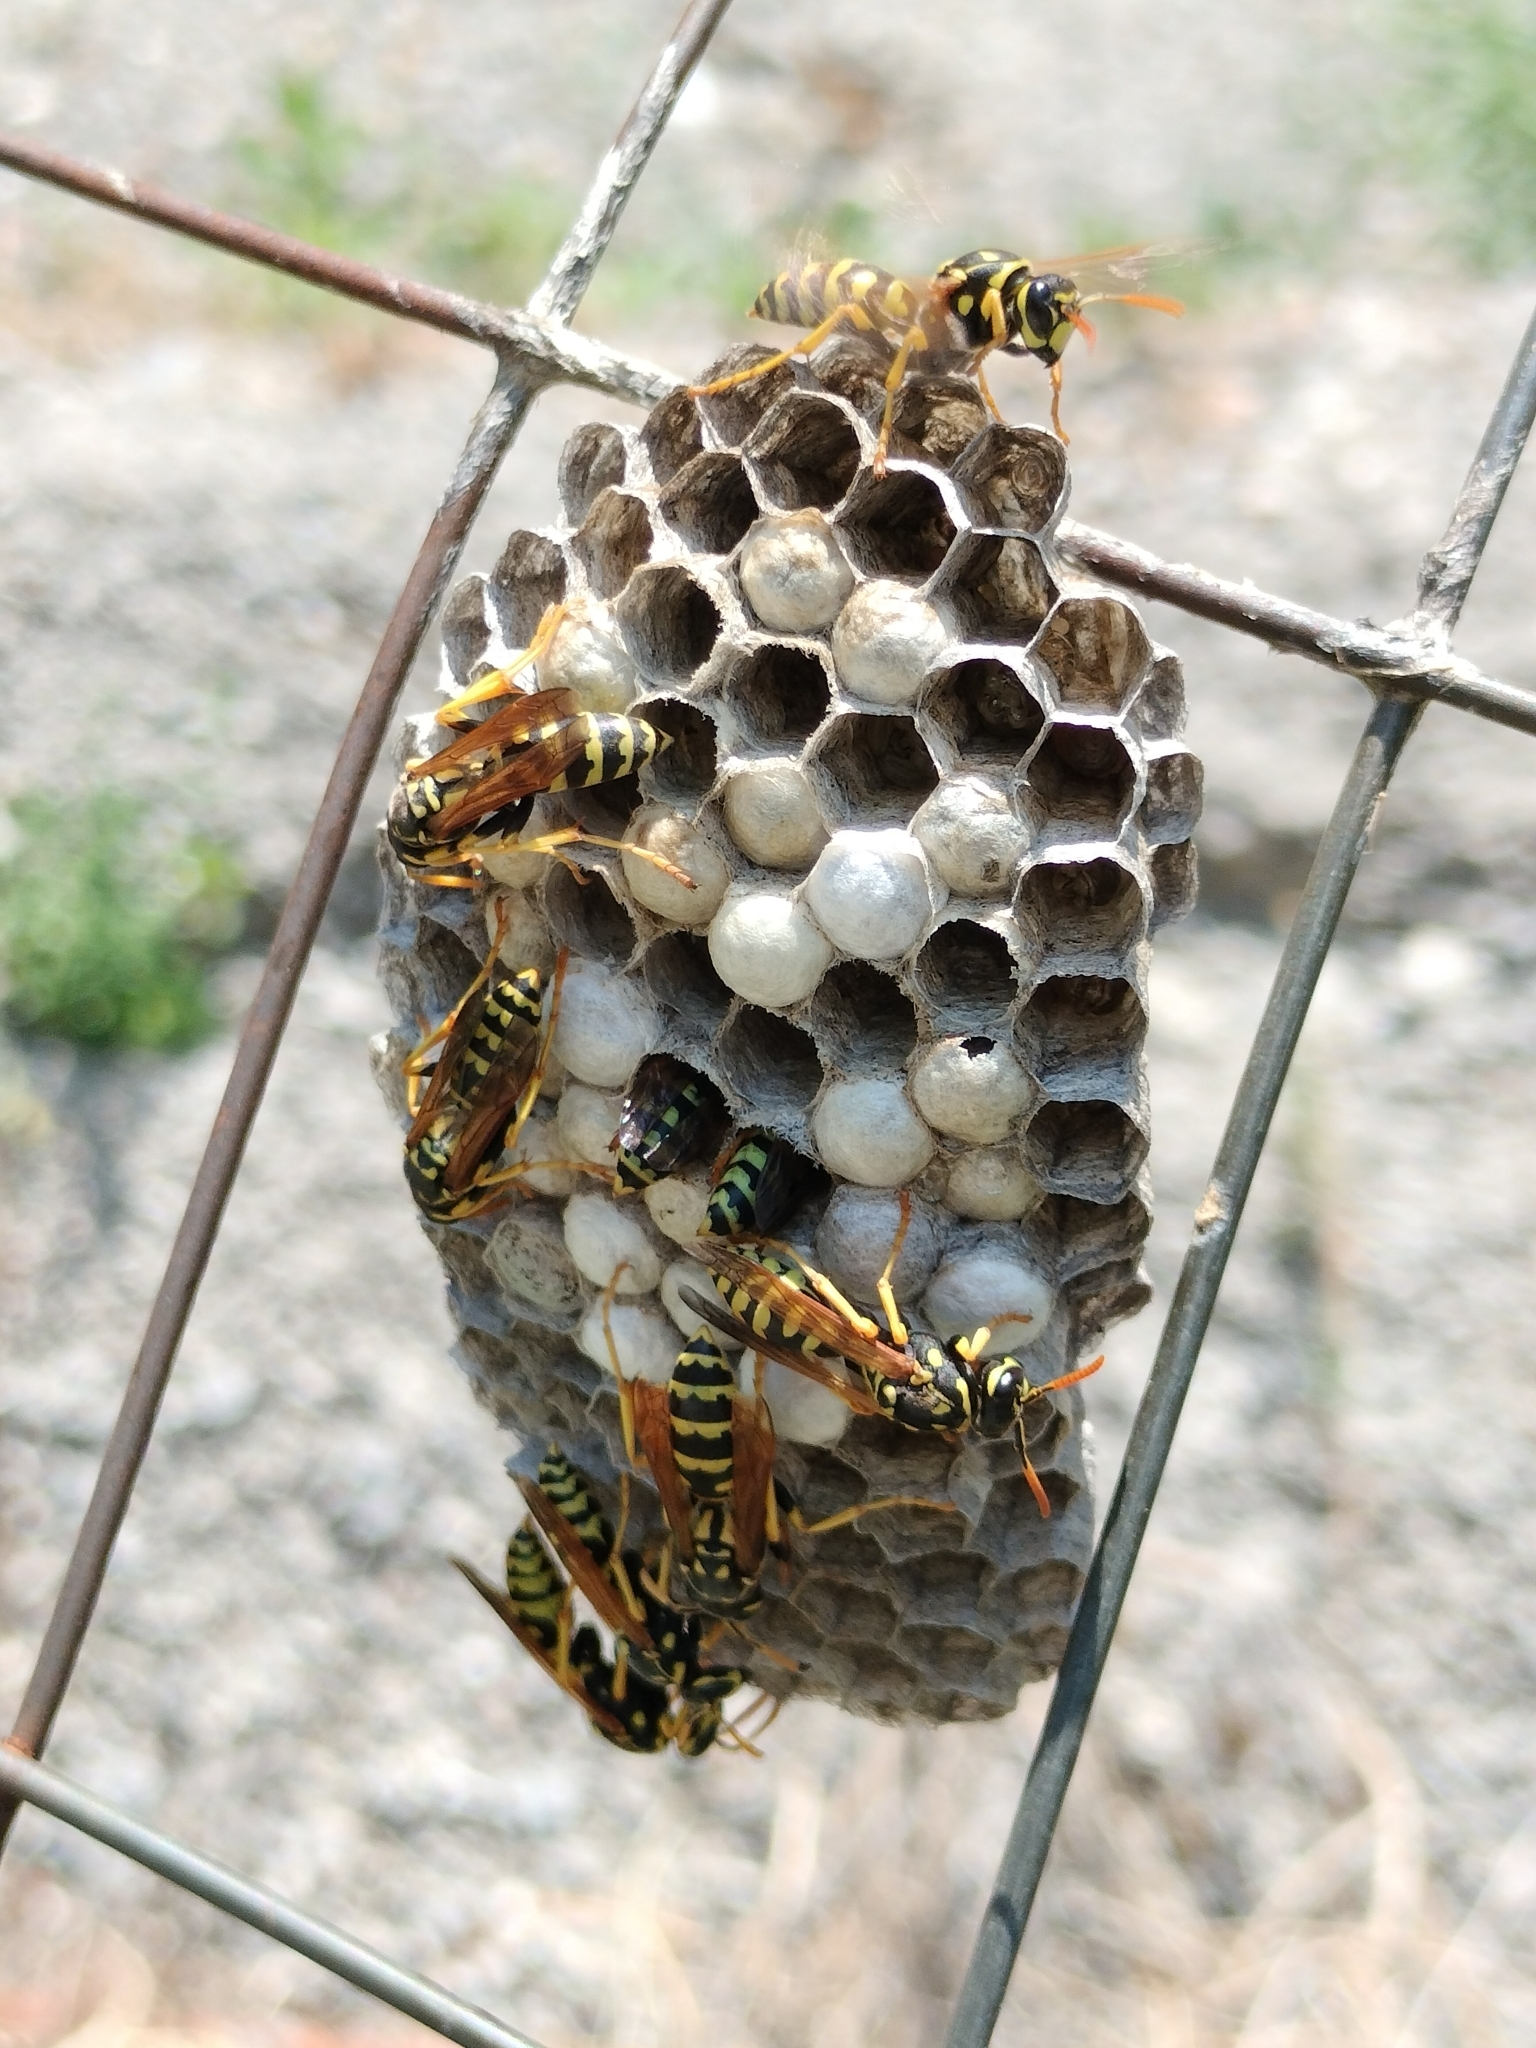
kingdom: Animalia
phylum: Arthropoda
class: Insecta
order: Hymenoptera
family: Eumenidae
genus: Polistes
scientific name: Polistes dominula
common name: Paper wasp
